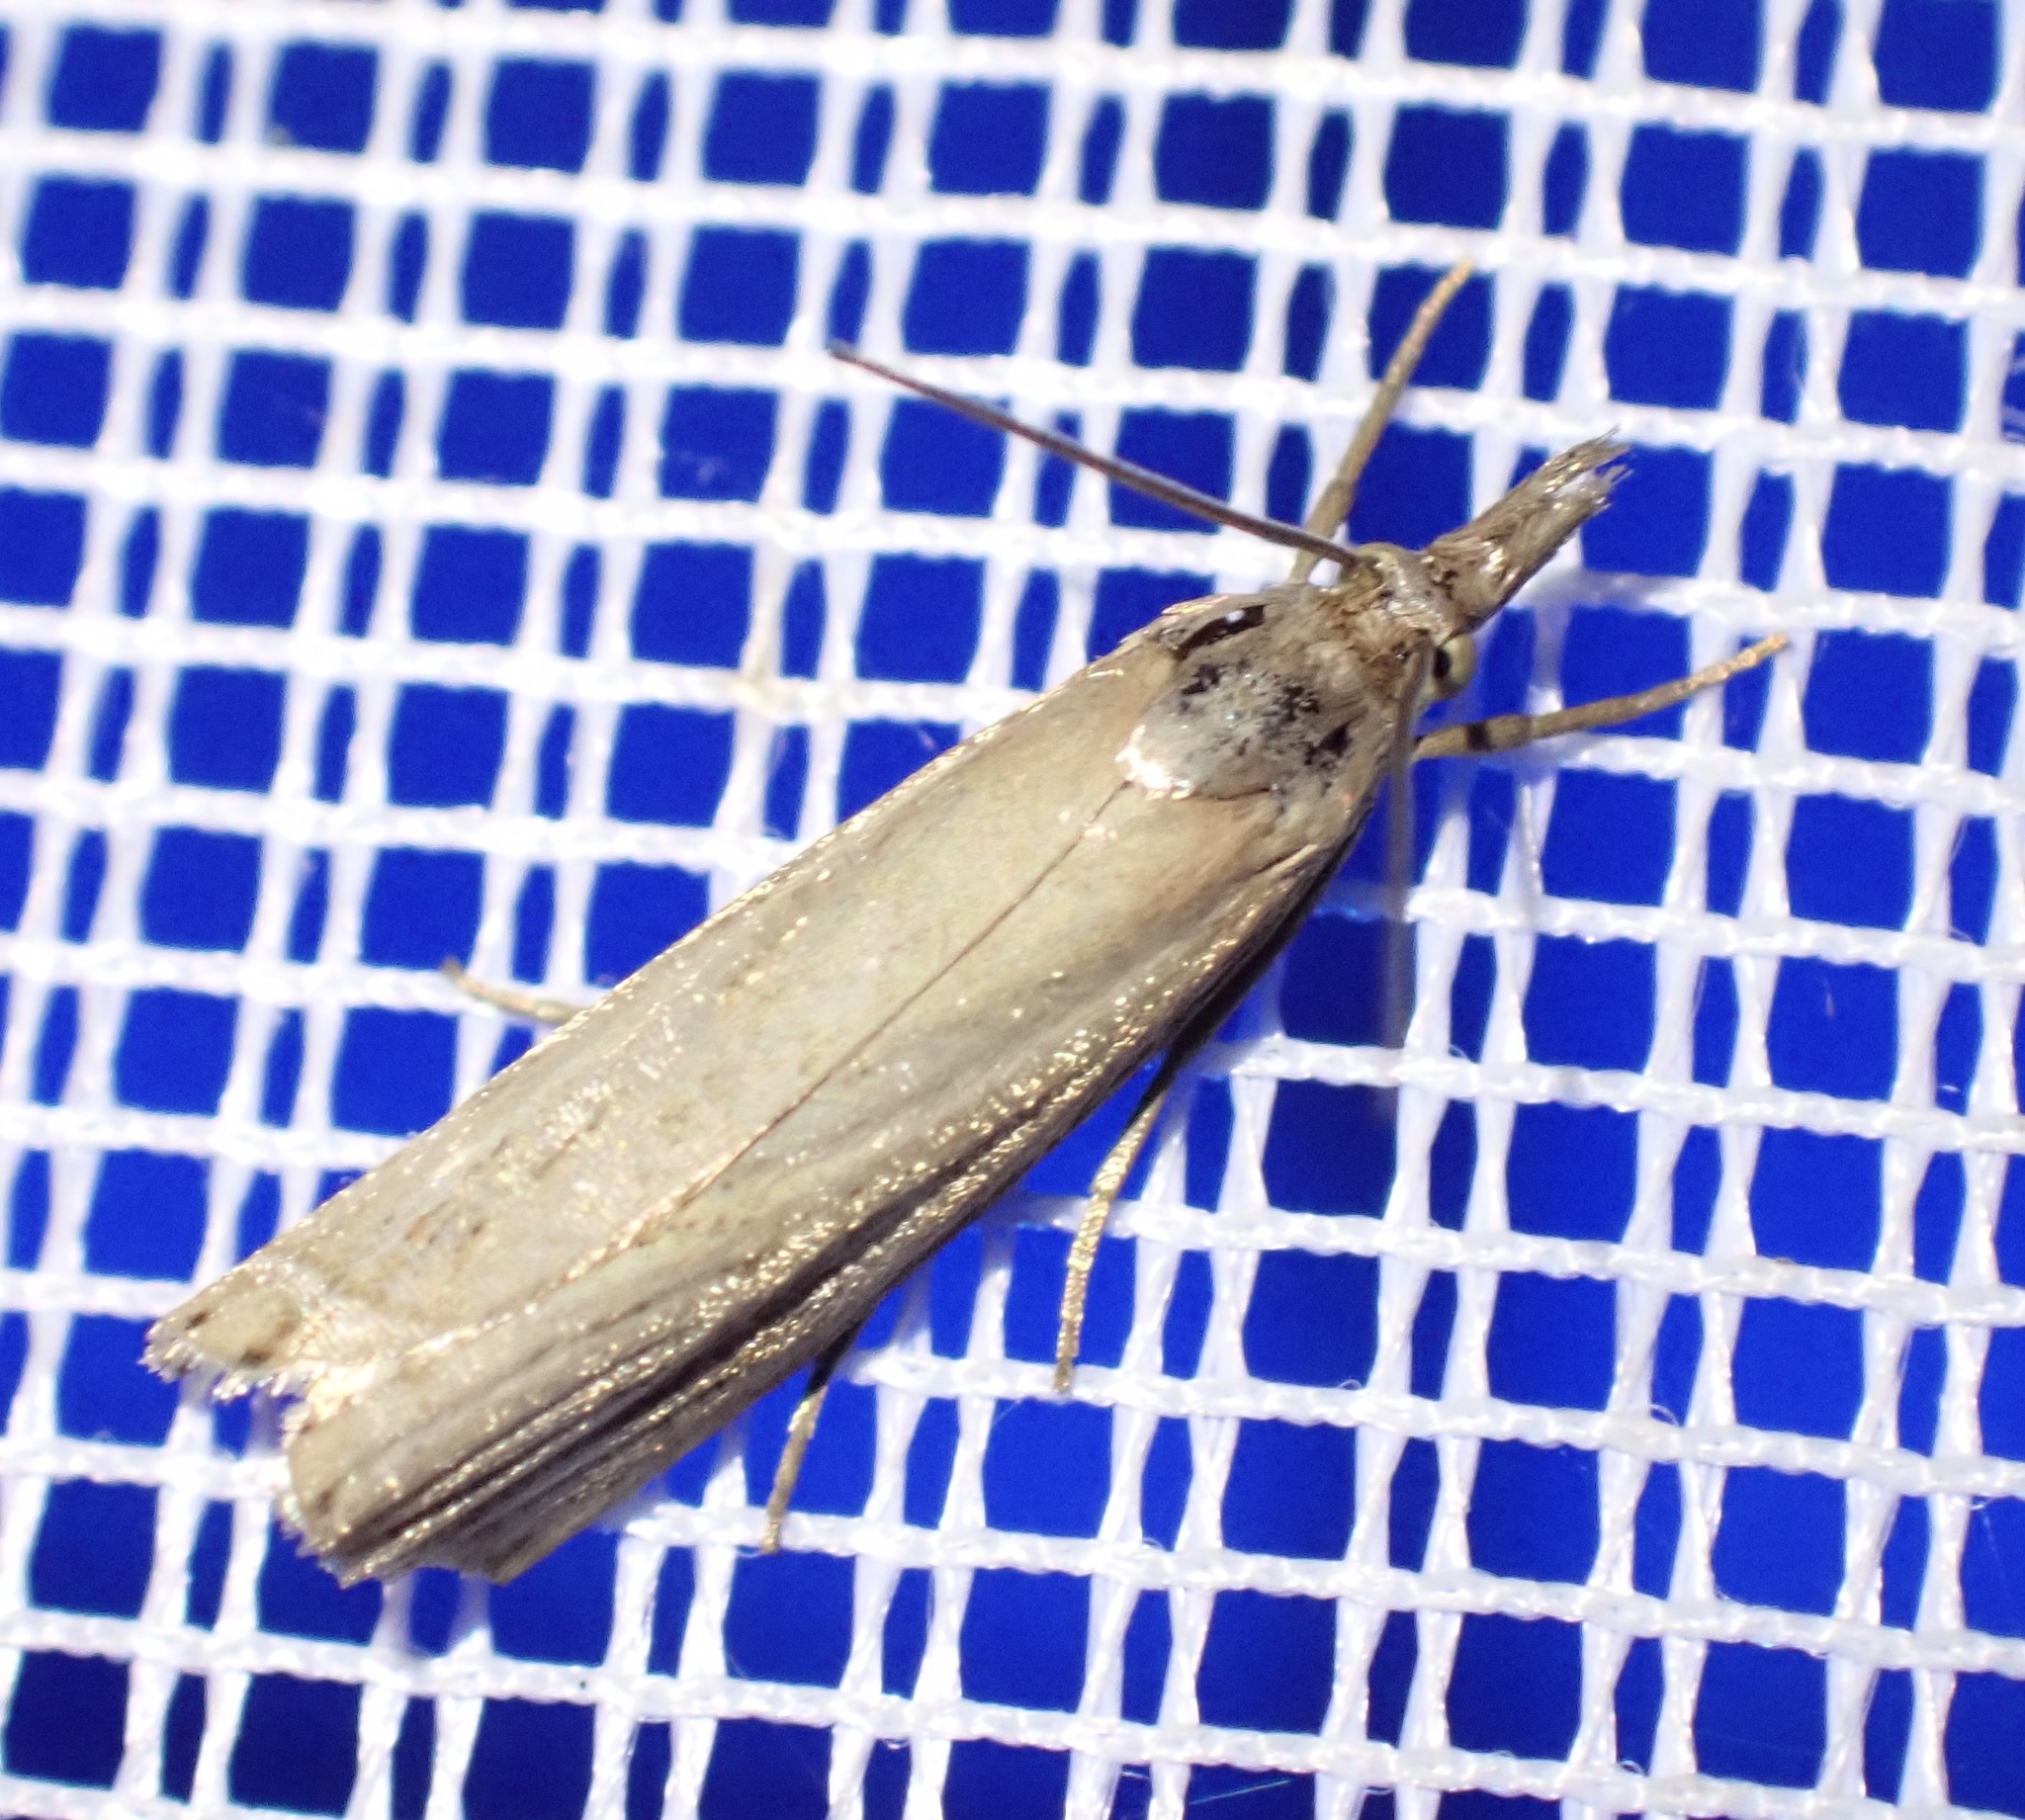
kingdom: Animalia
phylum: Arthropoda
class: Insecta
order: Lepidoptera
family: Crambidae
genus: Chrysoteuchia
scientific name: Chrysoteuchia culmella
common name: Garden grass-veneer
